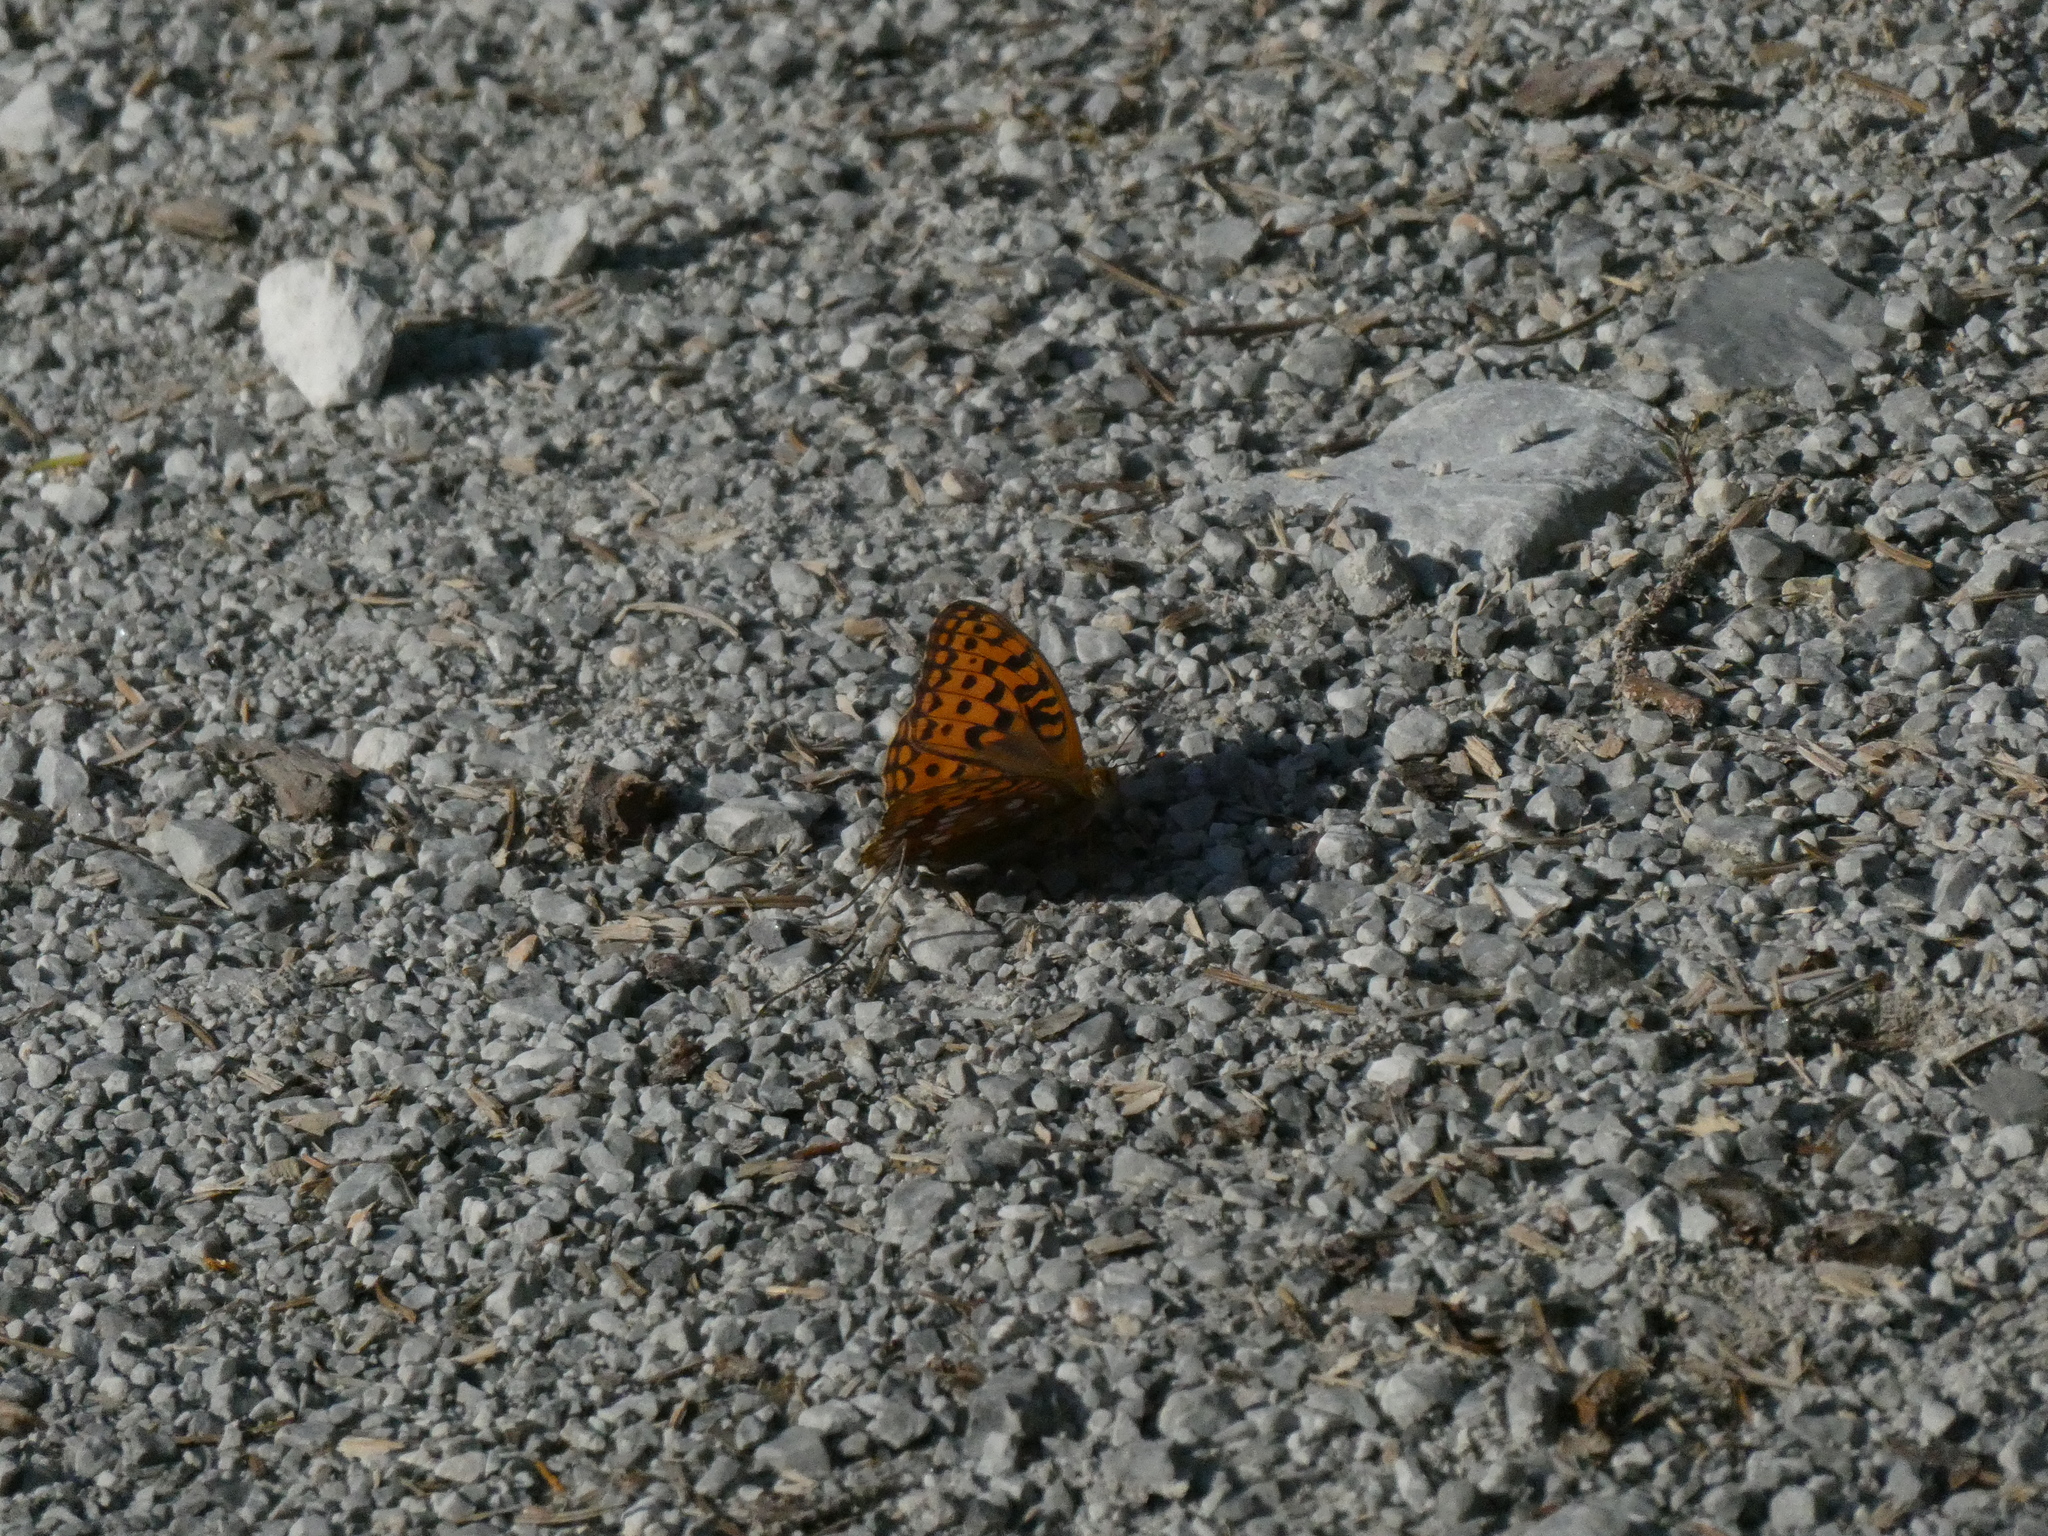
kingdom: Animalia
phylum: Arthropoda
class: Insecta
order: Lepidoptera
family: Nymphalidae
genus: Fabriciana
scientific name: Fabriciana adippe
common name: High brown fritillary
